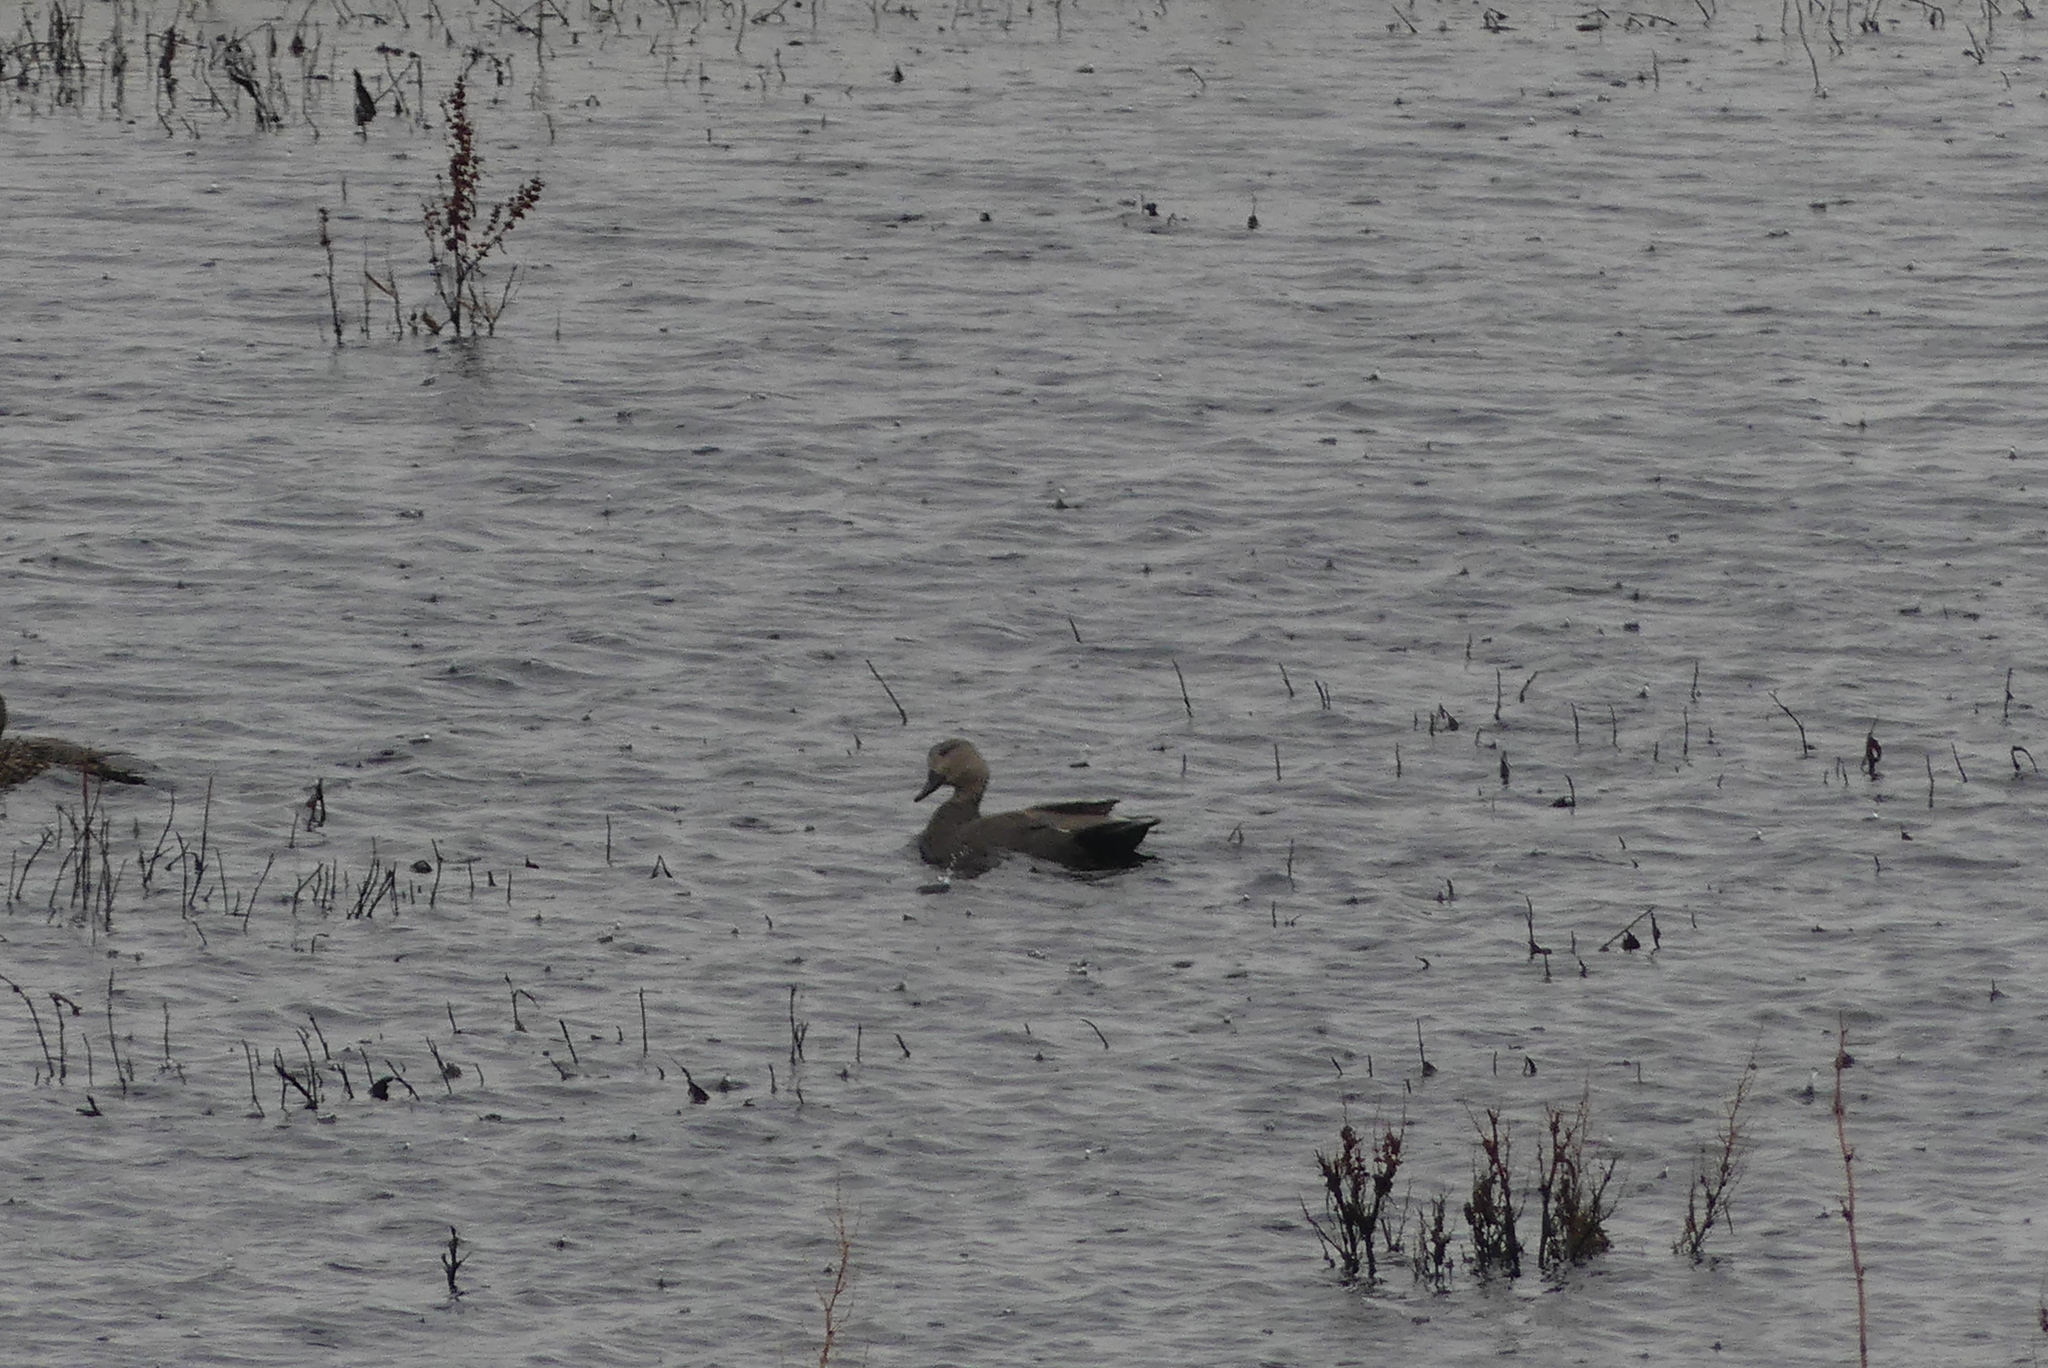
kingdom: Animalia
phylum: Chordata
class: Aves
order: Anseriformes
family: Anatidae
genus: Mareca
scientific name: Mareca strepera
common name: Gadwall
